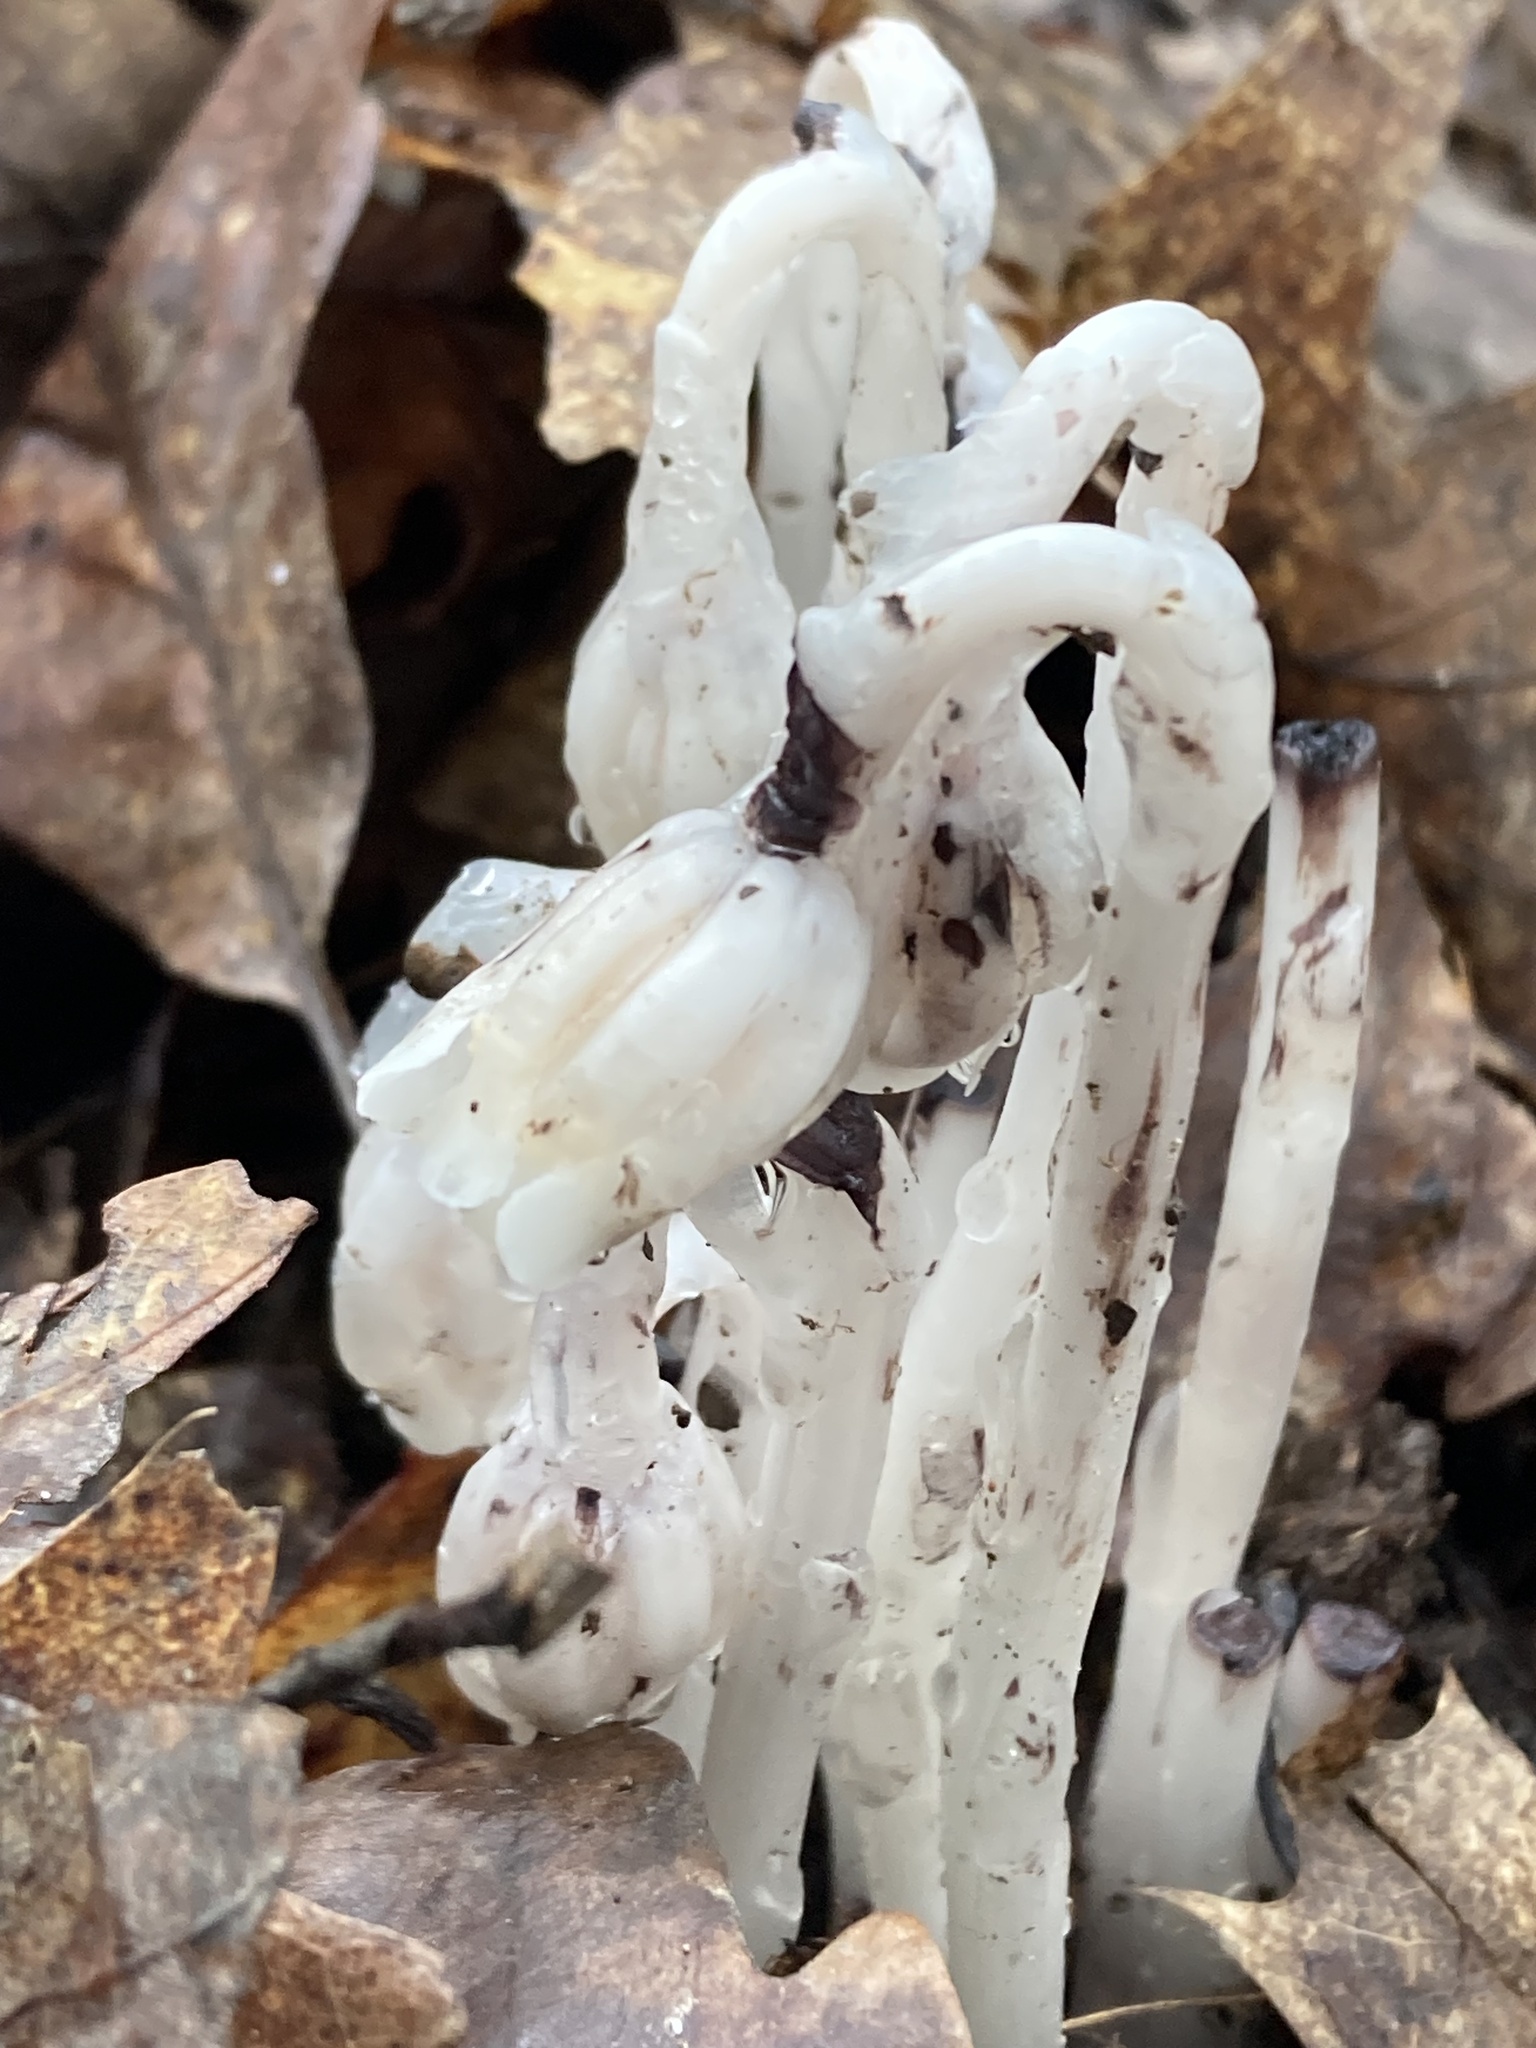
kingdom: Plantae
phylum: Tracheophyta
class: Magnoliopsida
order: Ericales
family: Ericaceae
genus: Monotropa
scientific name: Monotropa uniflora
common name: Convulsion root
